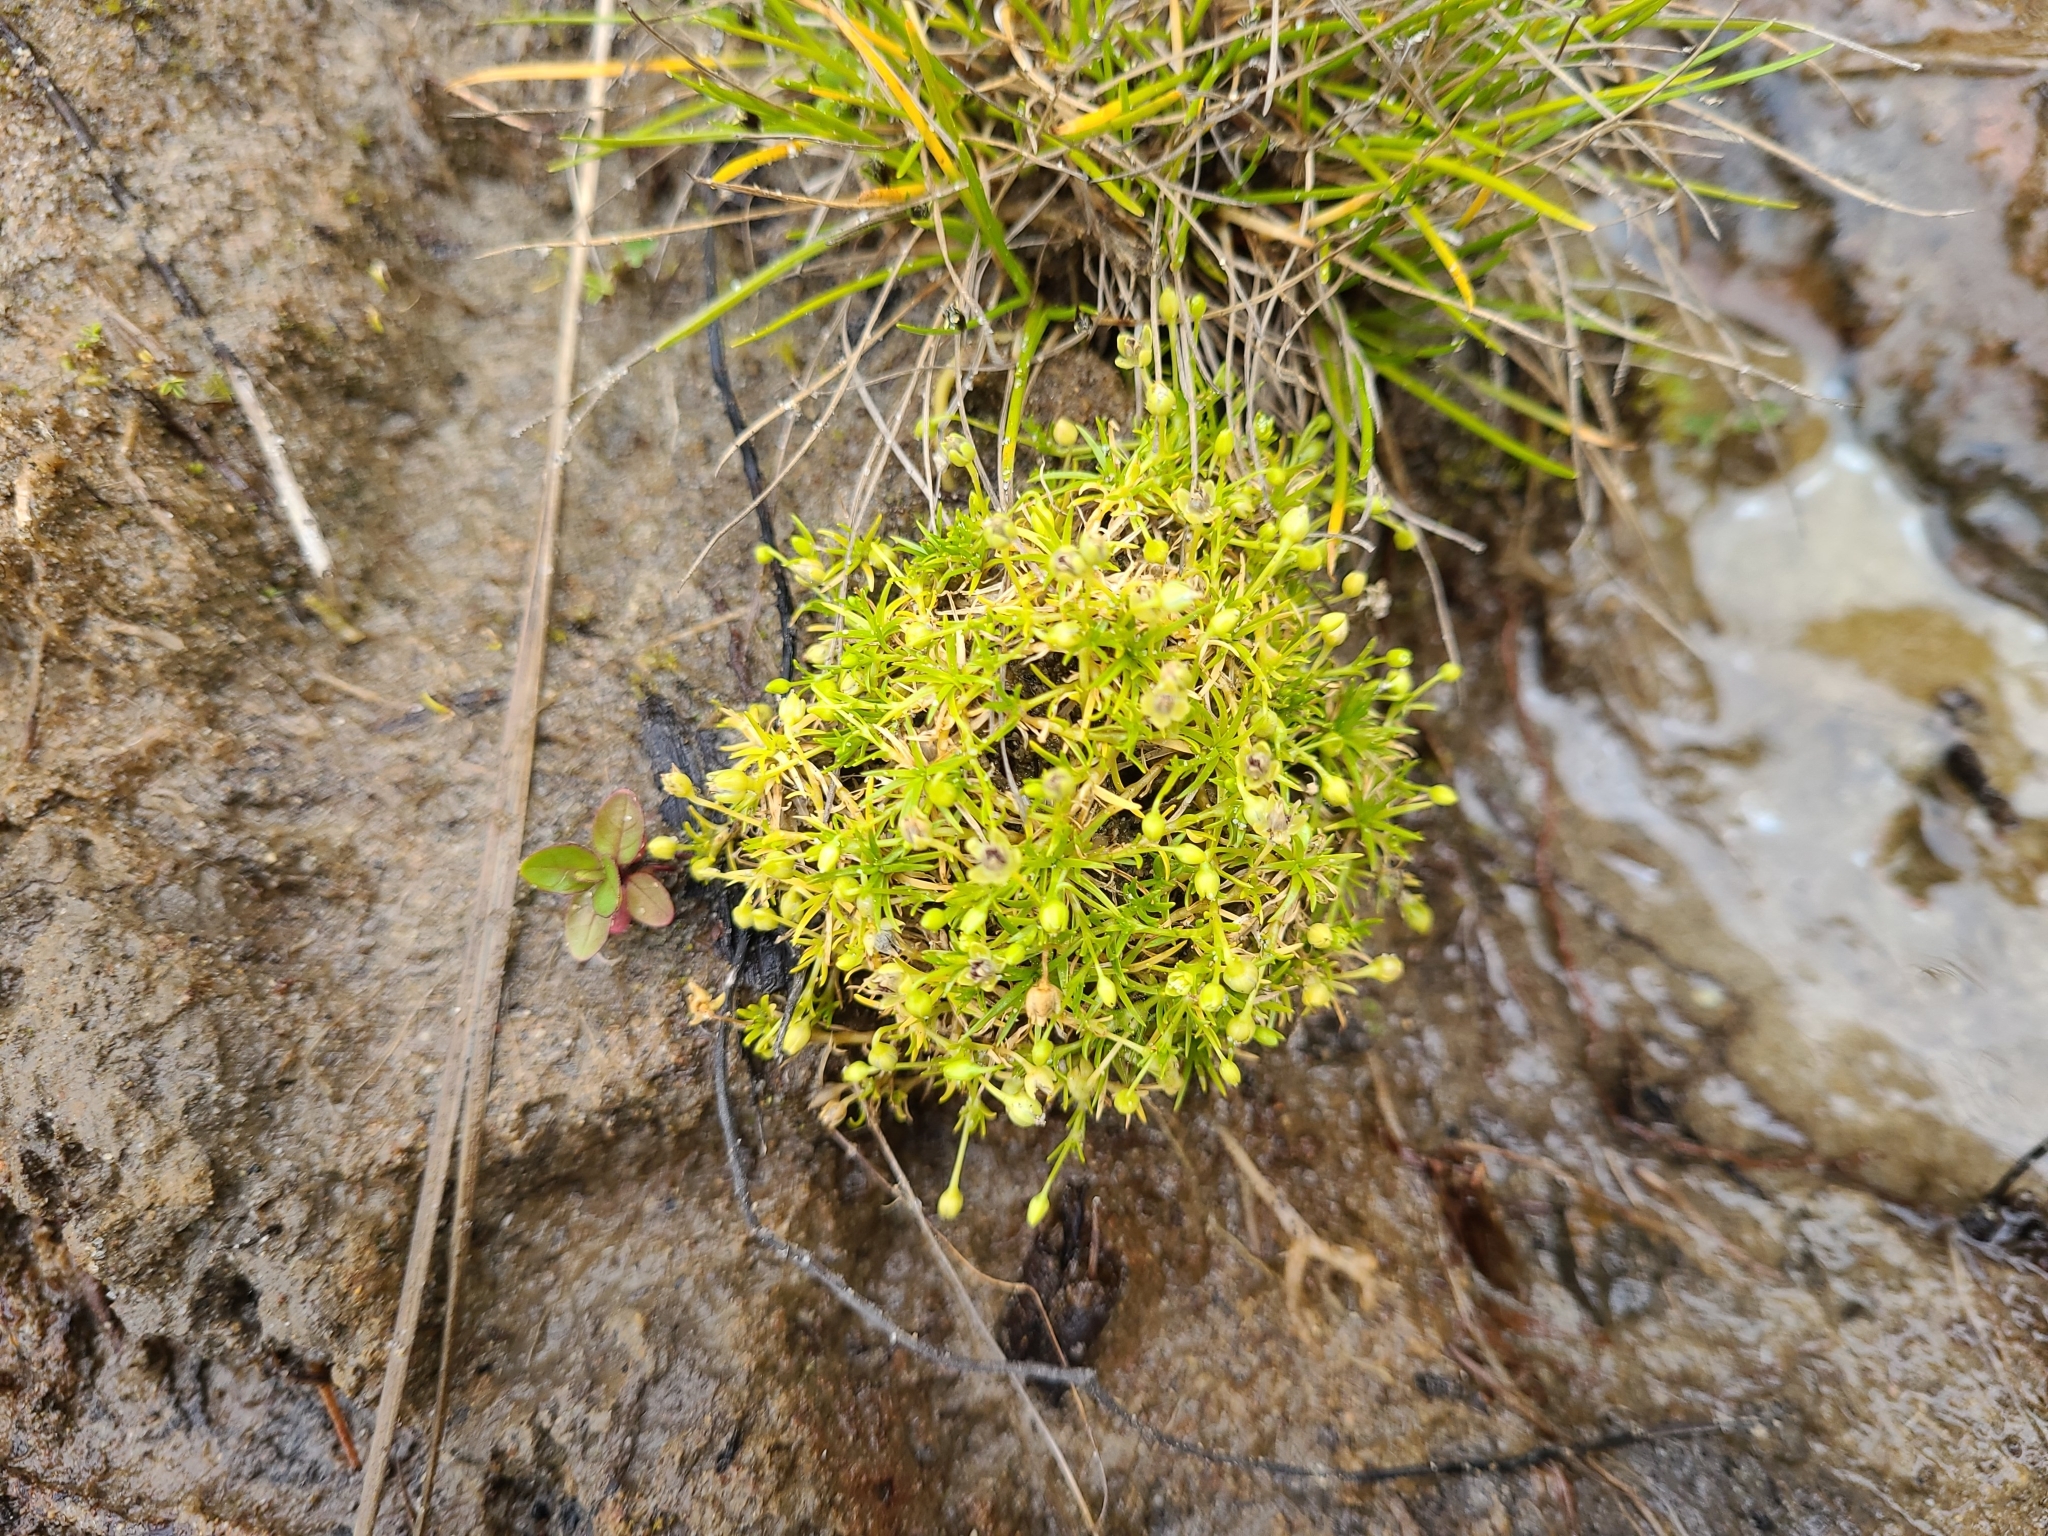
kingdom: Plantae
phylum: Tracheophyta
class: Magnoliopsida
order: Caryophyllales
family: Caryophyllaceae
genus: Sagina
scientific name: Sagina procumbens
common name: Procumbent pearlwort
